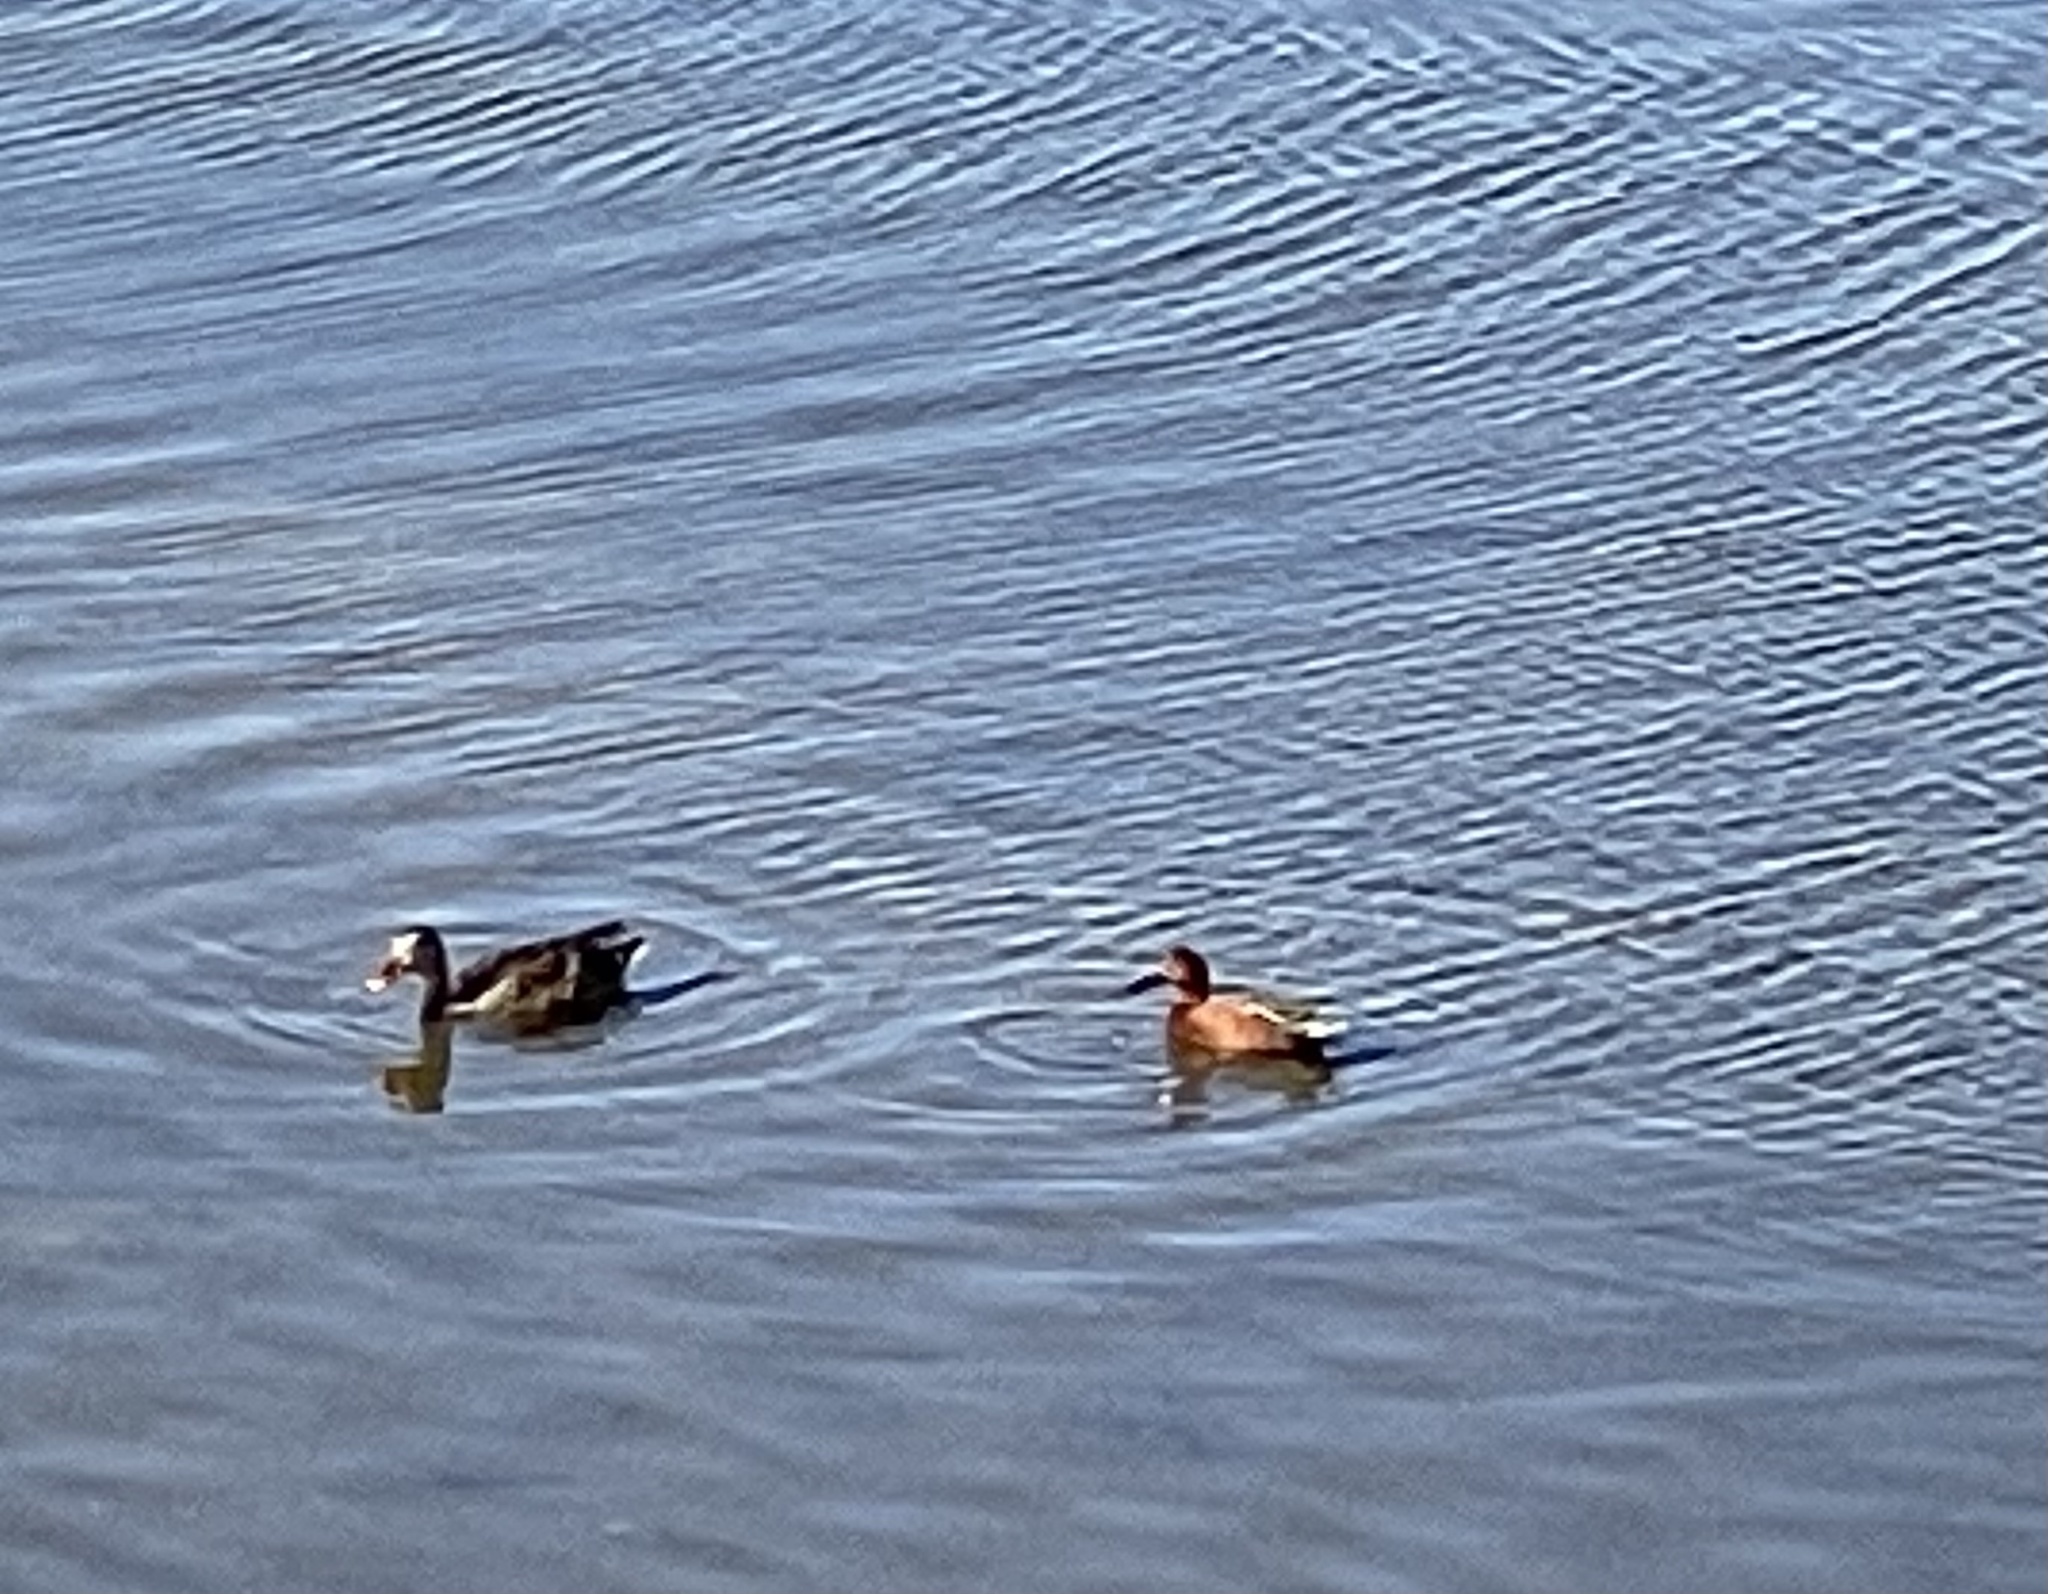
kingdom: Animalia
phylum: Chordata
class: Aves
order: Anseriformes
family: Anatidae
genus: Spatula
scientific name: Spatula cyanoptera
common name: Cinnamon teal
